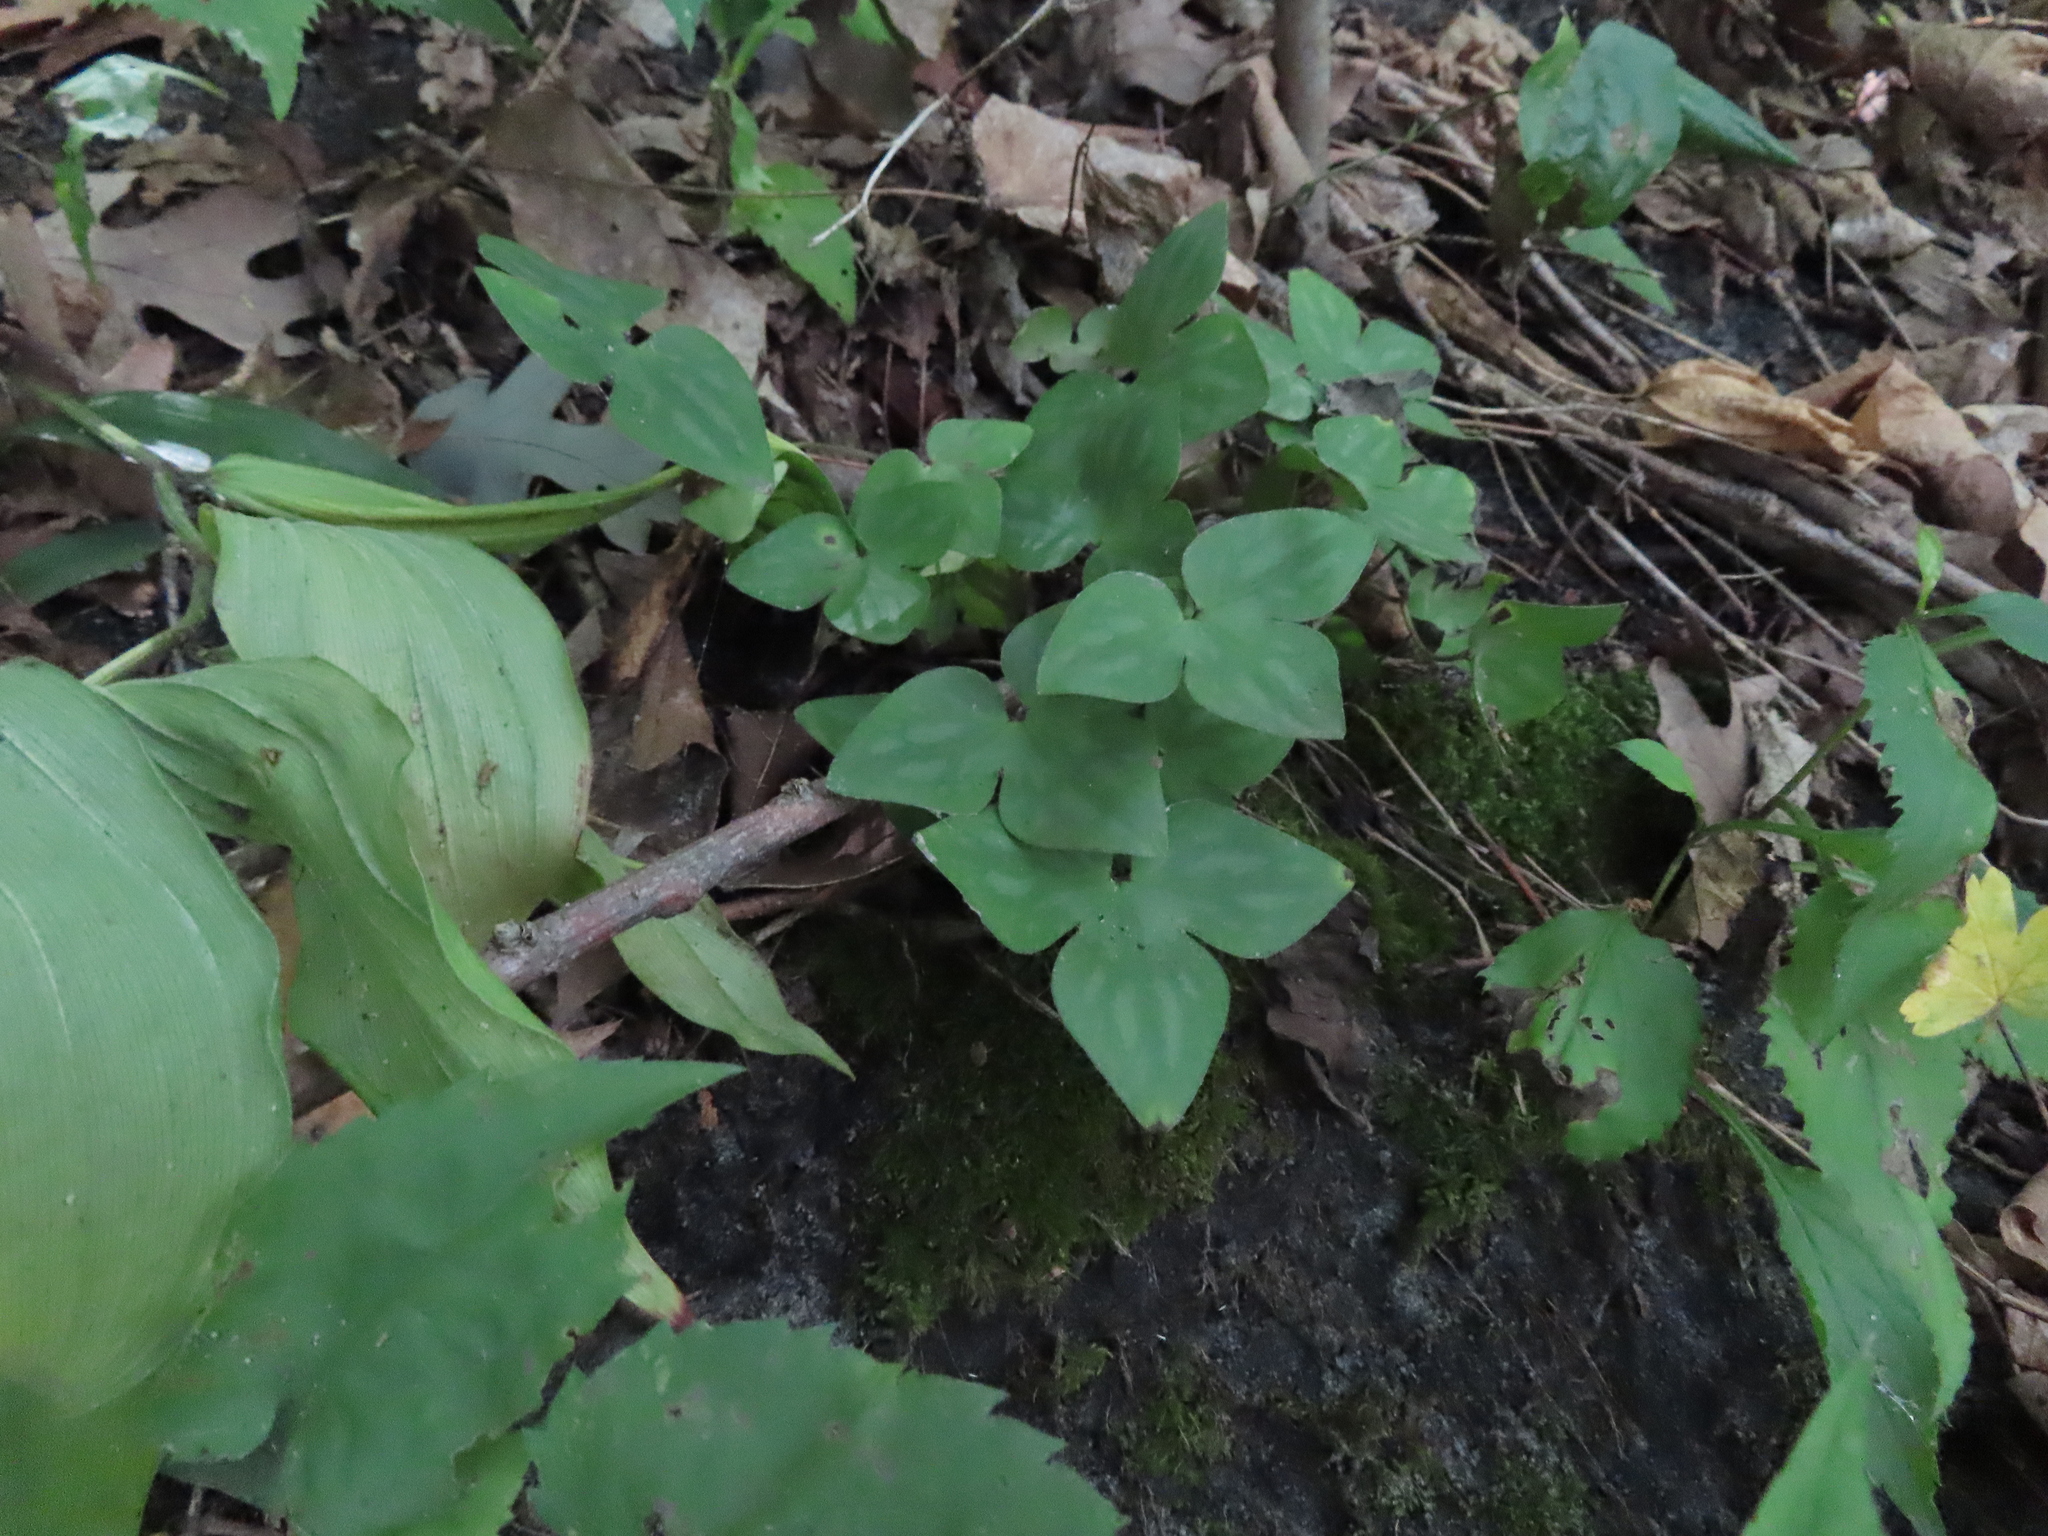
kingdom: Plantae
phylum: Tracheophyta
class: Magnoliopsida
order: Ranunculales
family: Ranunculaceae
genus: Hepatica
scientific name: Hepatica acutiloba
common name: Sharp-lobed hepatica
